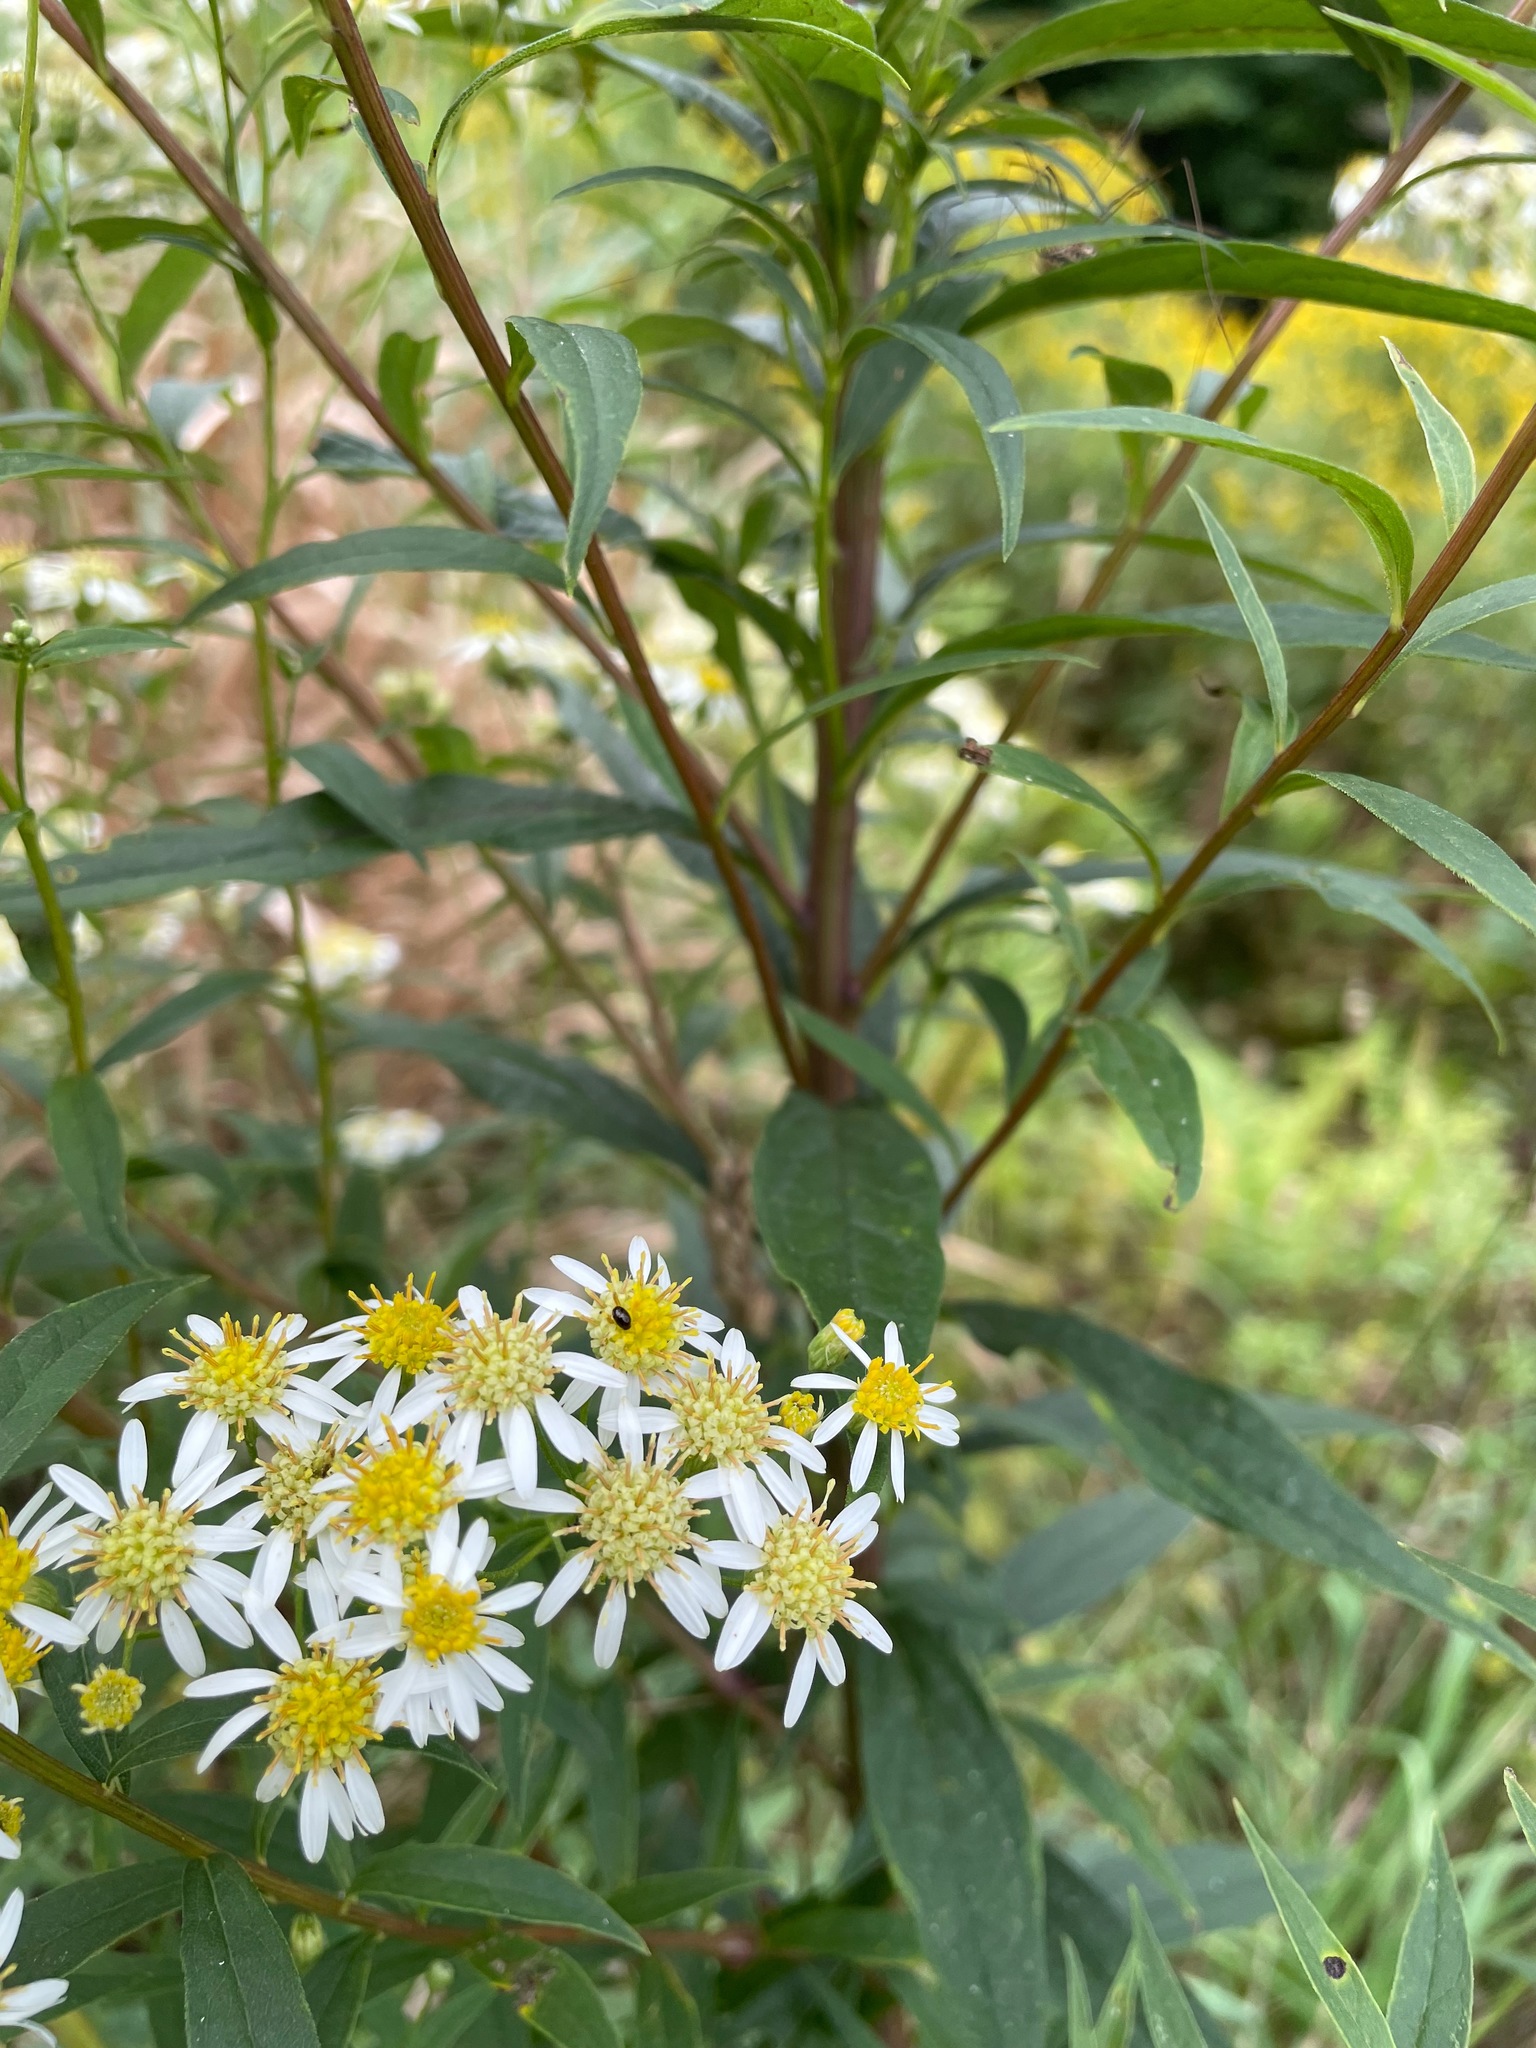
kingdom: Plantae
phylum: Tracheophyta
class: Magnoliopsida
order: Asterales
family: Asteraceae
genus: Doellingeria
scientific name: Doellingeria umbellata
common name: Flat-top white aster
